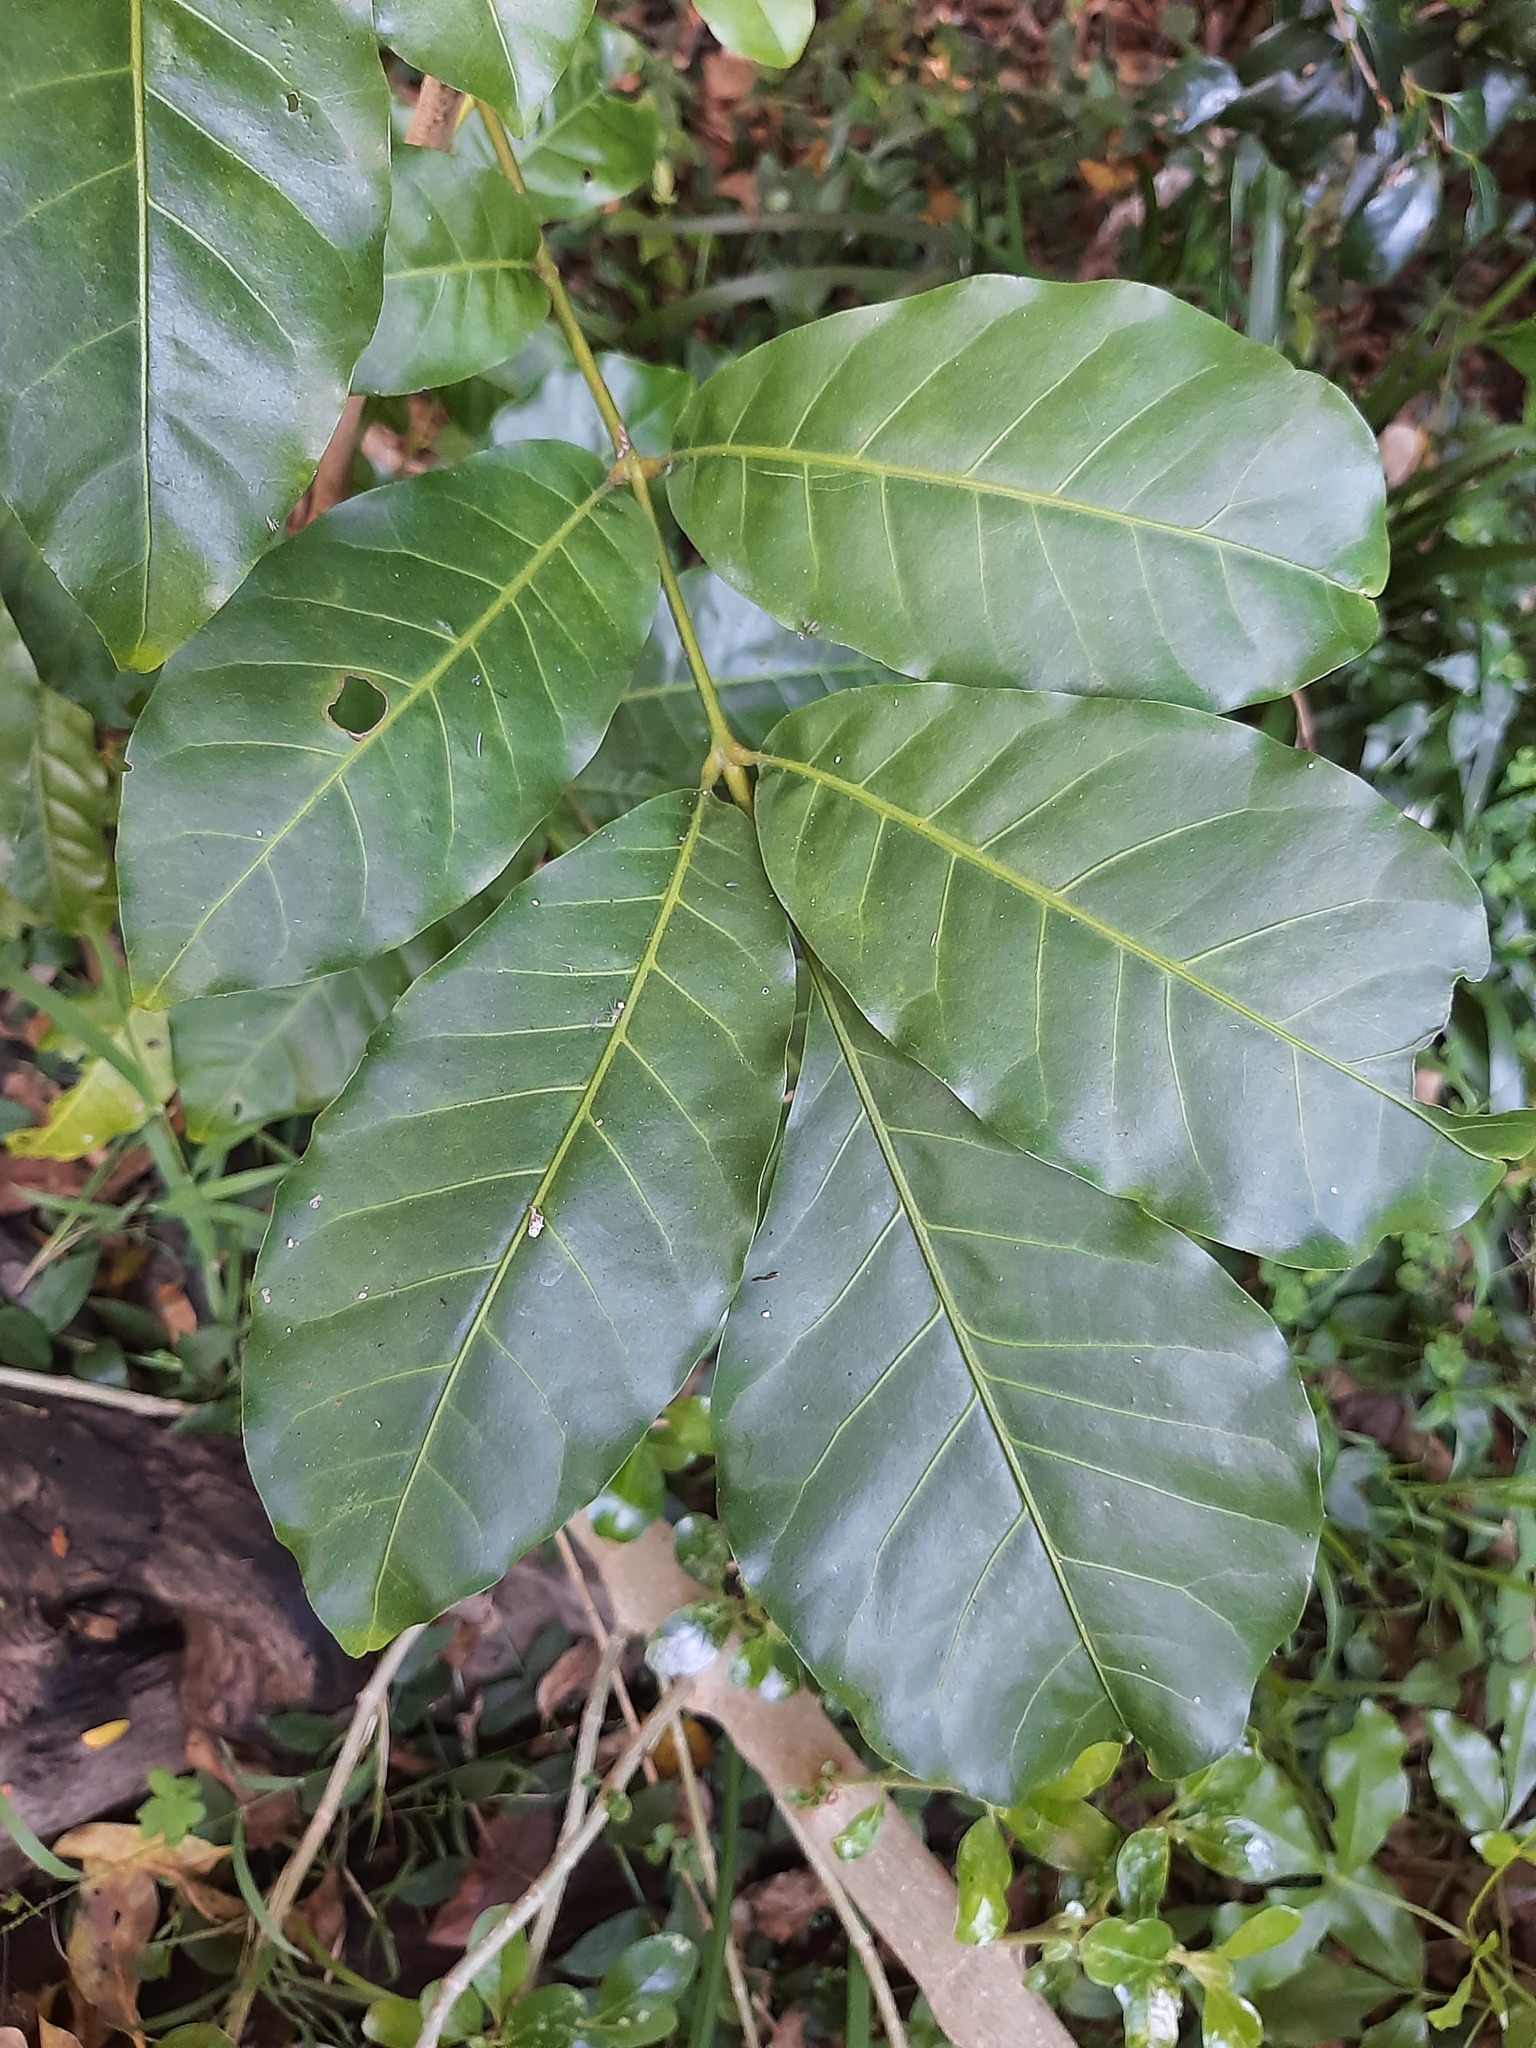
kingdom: Plantae
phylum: Tracheophyta
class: Magnoliopsida
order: Sapindales
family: Meliaceae
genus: Didymocheton
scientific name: Didymocheton spectabilis
